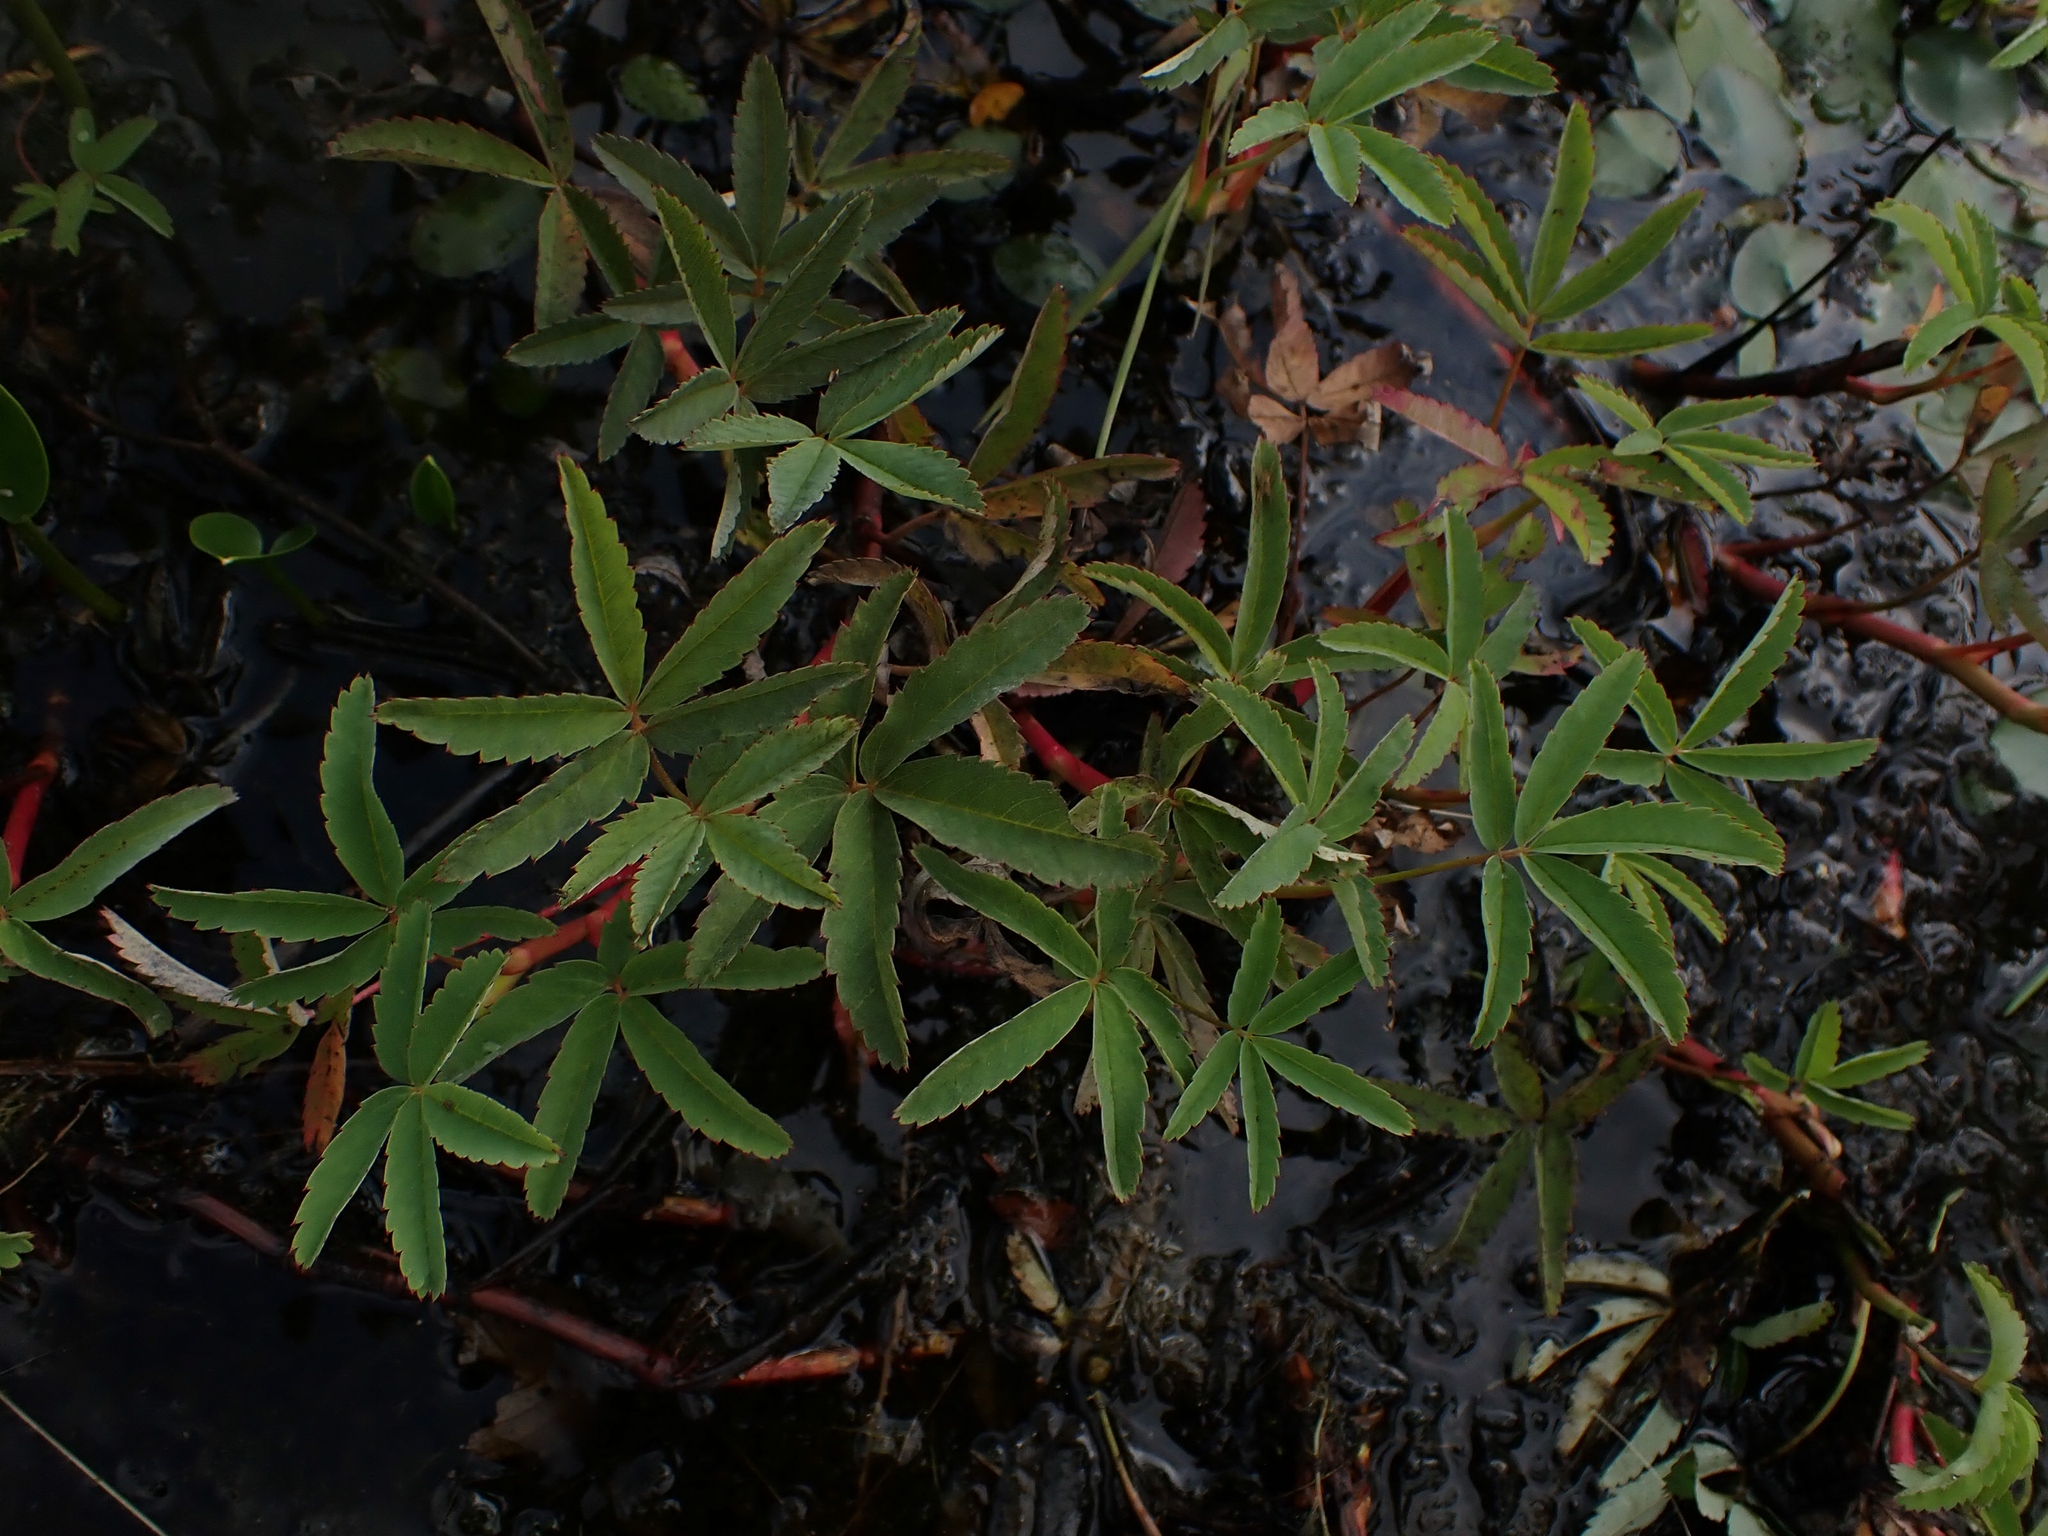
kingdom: Plantae
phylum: Tracheophyta
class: Magnoliopsida
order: Rosales
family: Rosaceae
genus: Comarum
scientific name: Comarum palustre
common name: Marsh cinquefoil
